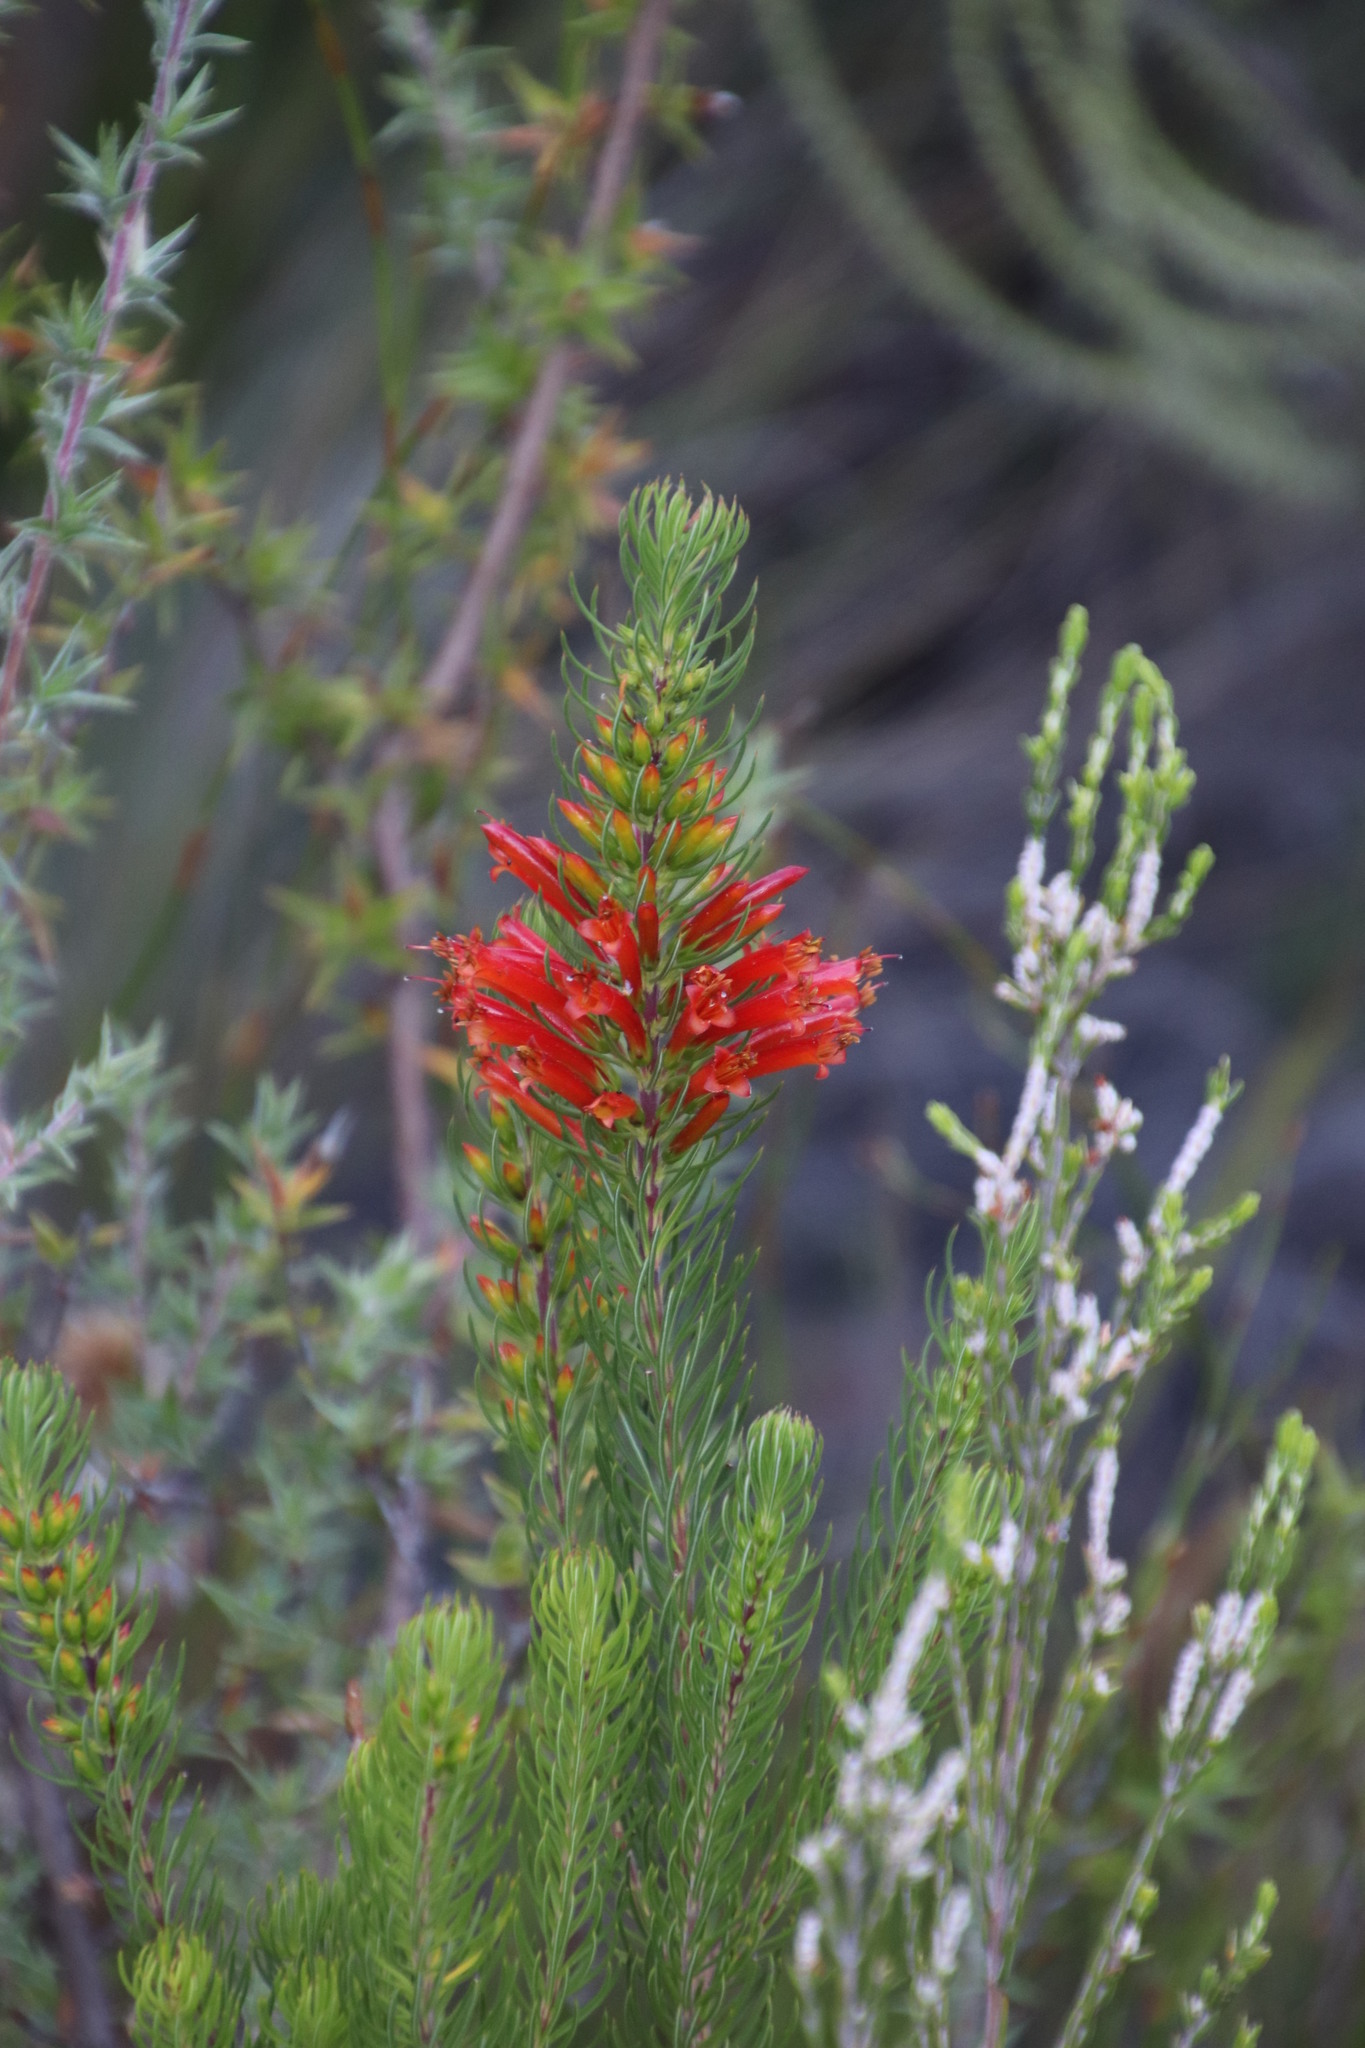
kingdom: Plantae
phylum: Tracheophyta
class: Magnoliopsida
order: Ericales
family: Ericaceae
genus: Erica
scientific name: Erica grandiflora
